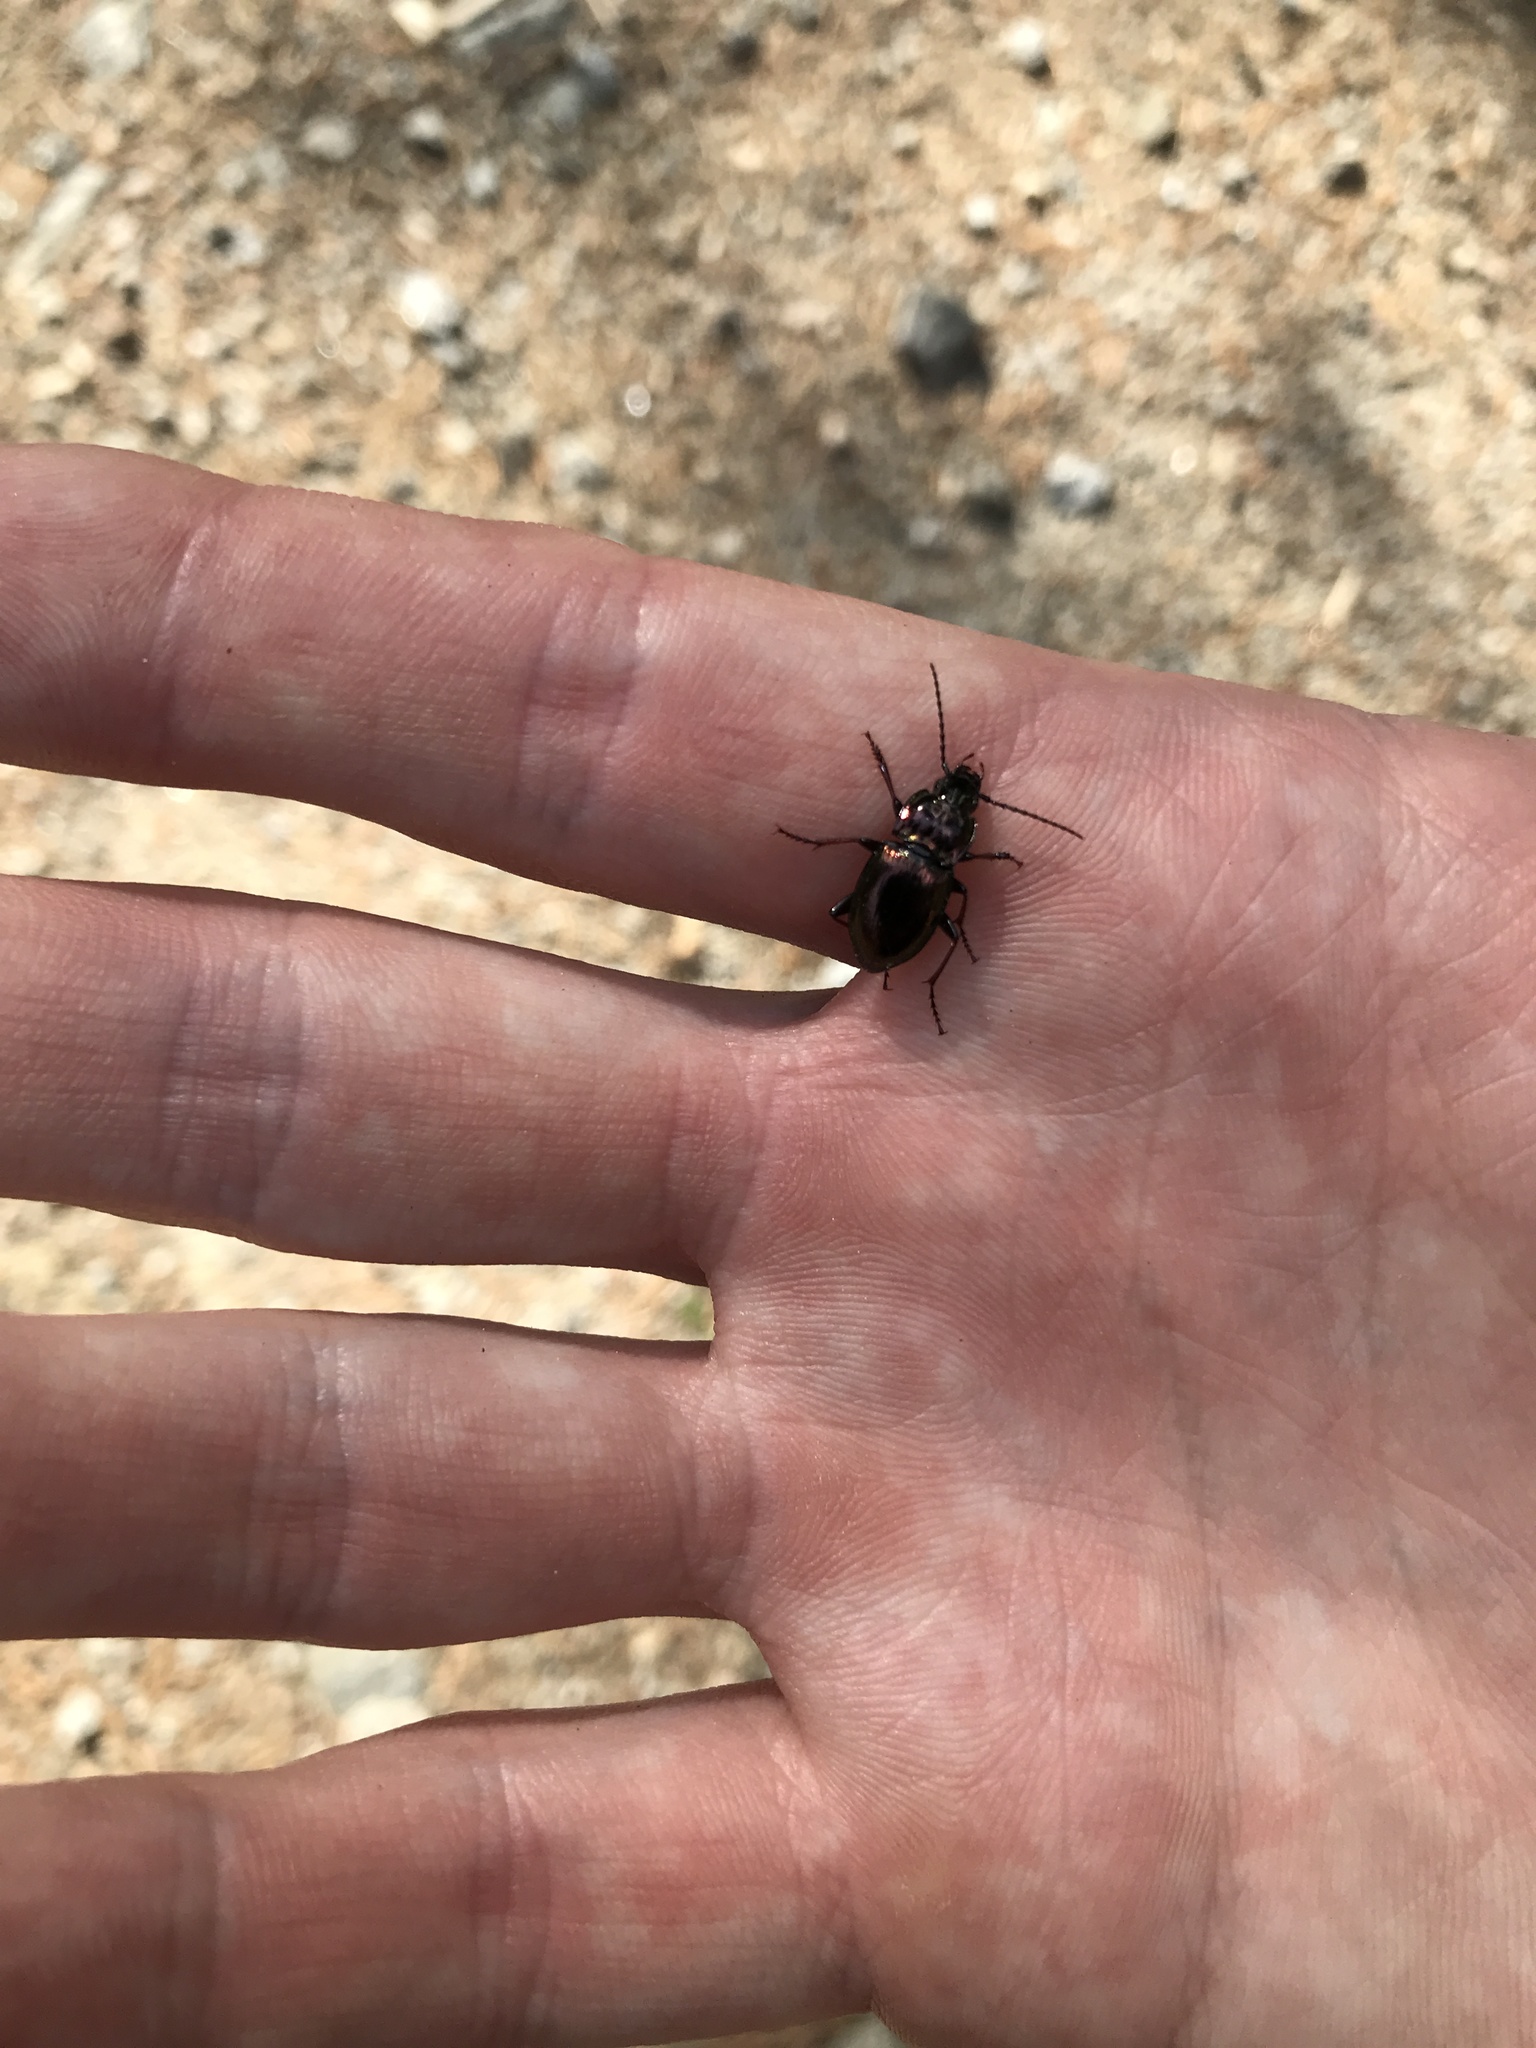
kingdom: Animalia
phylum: Arthropoda
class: Insecta
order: Coleoptera
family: Carabidae
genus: Pterostichus
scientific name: Pterostichus burmeisteri
